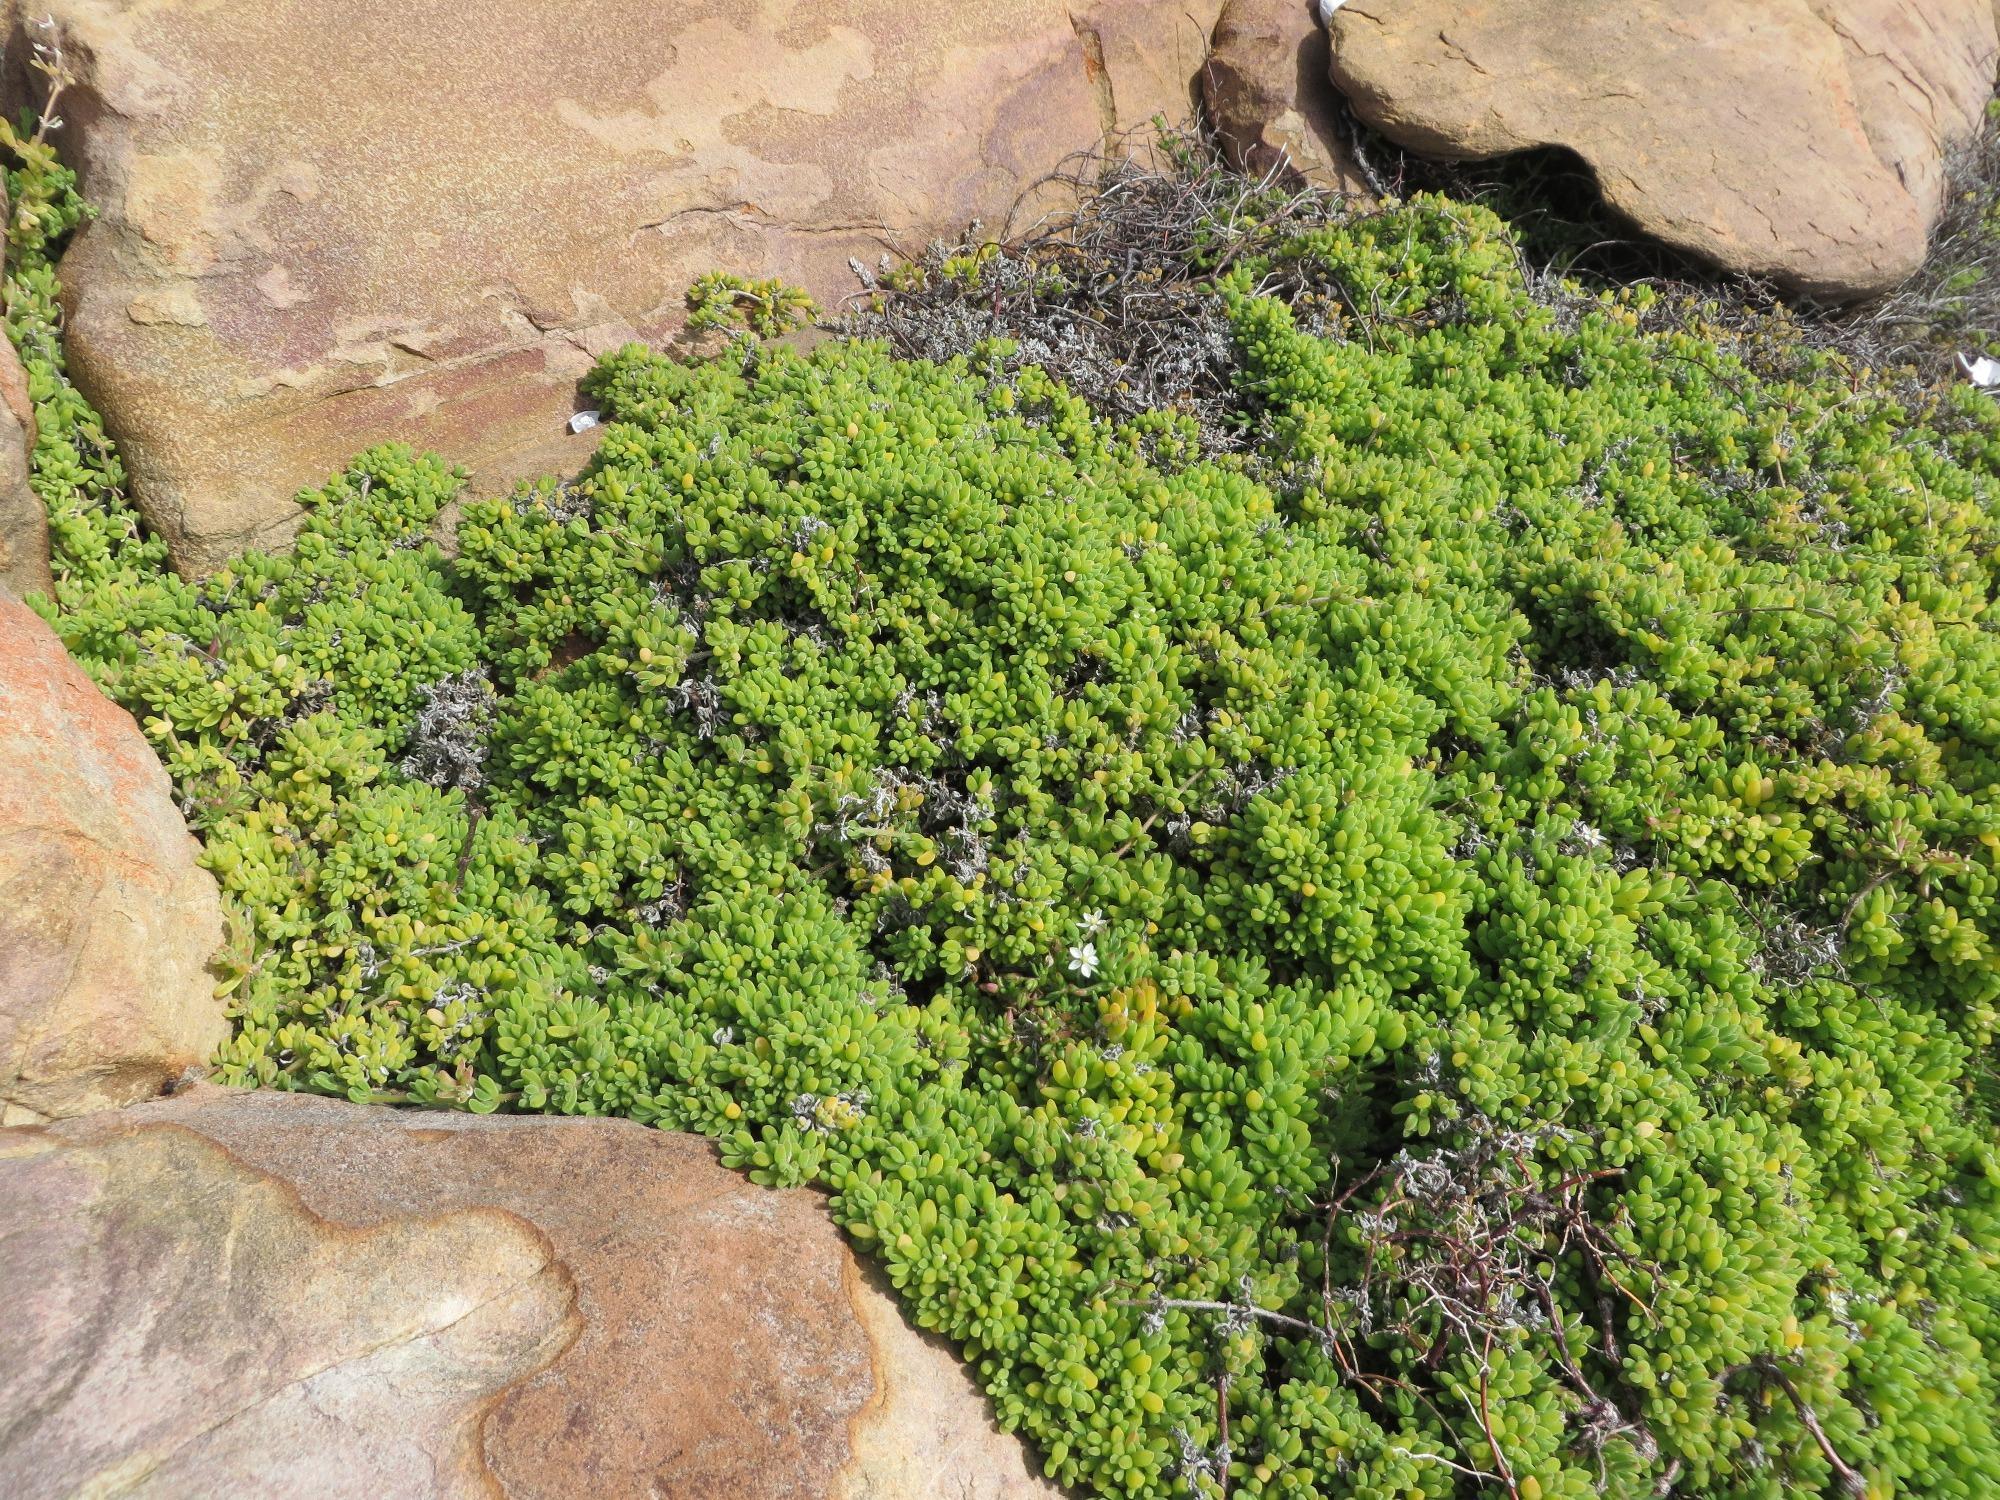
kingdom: Plantae
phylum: Tracheophyta
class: Magnoliopsida
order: Caryophyllales
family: Caryophyllaceae
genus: Spergularia
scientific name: Spergularia media
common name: Greater sea-spurrey
